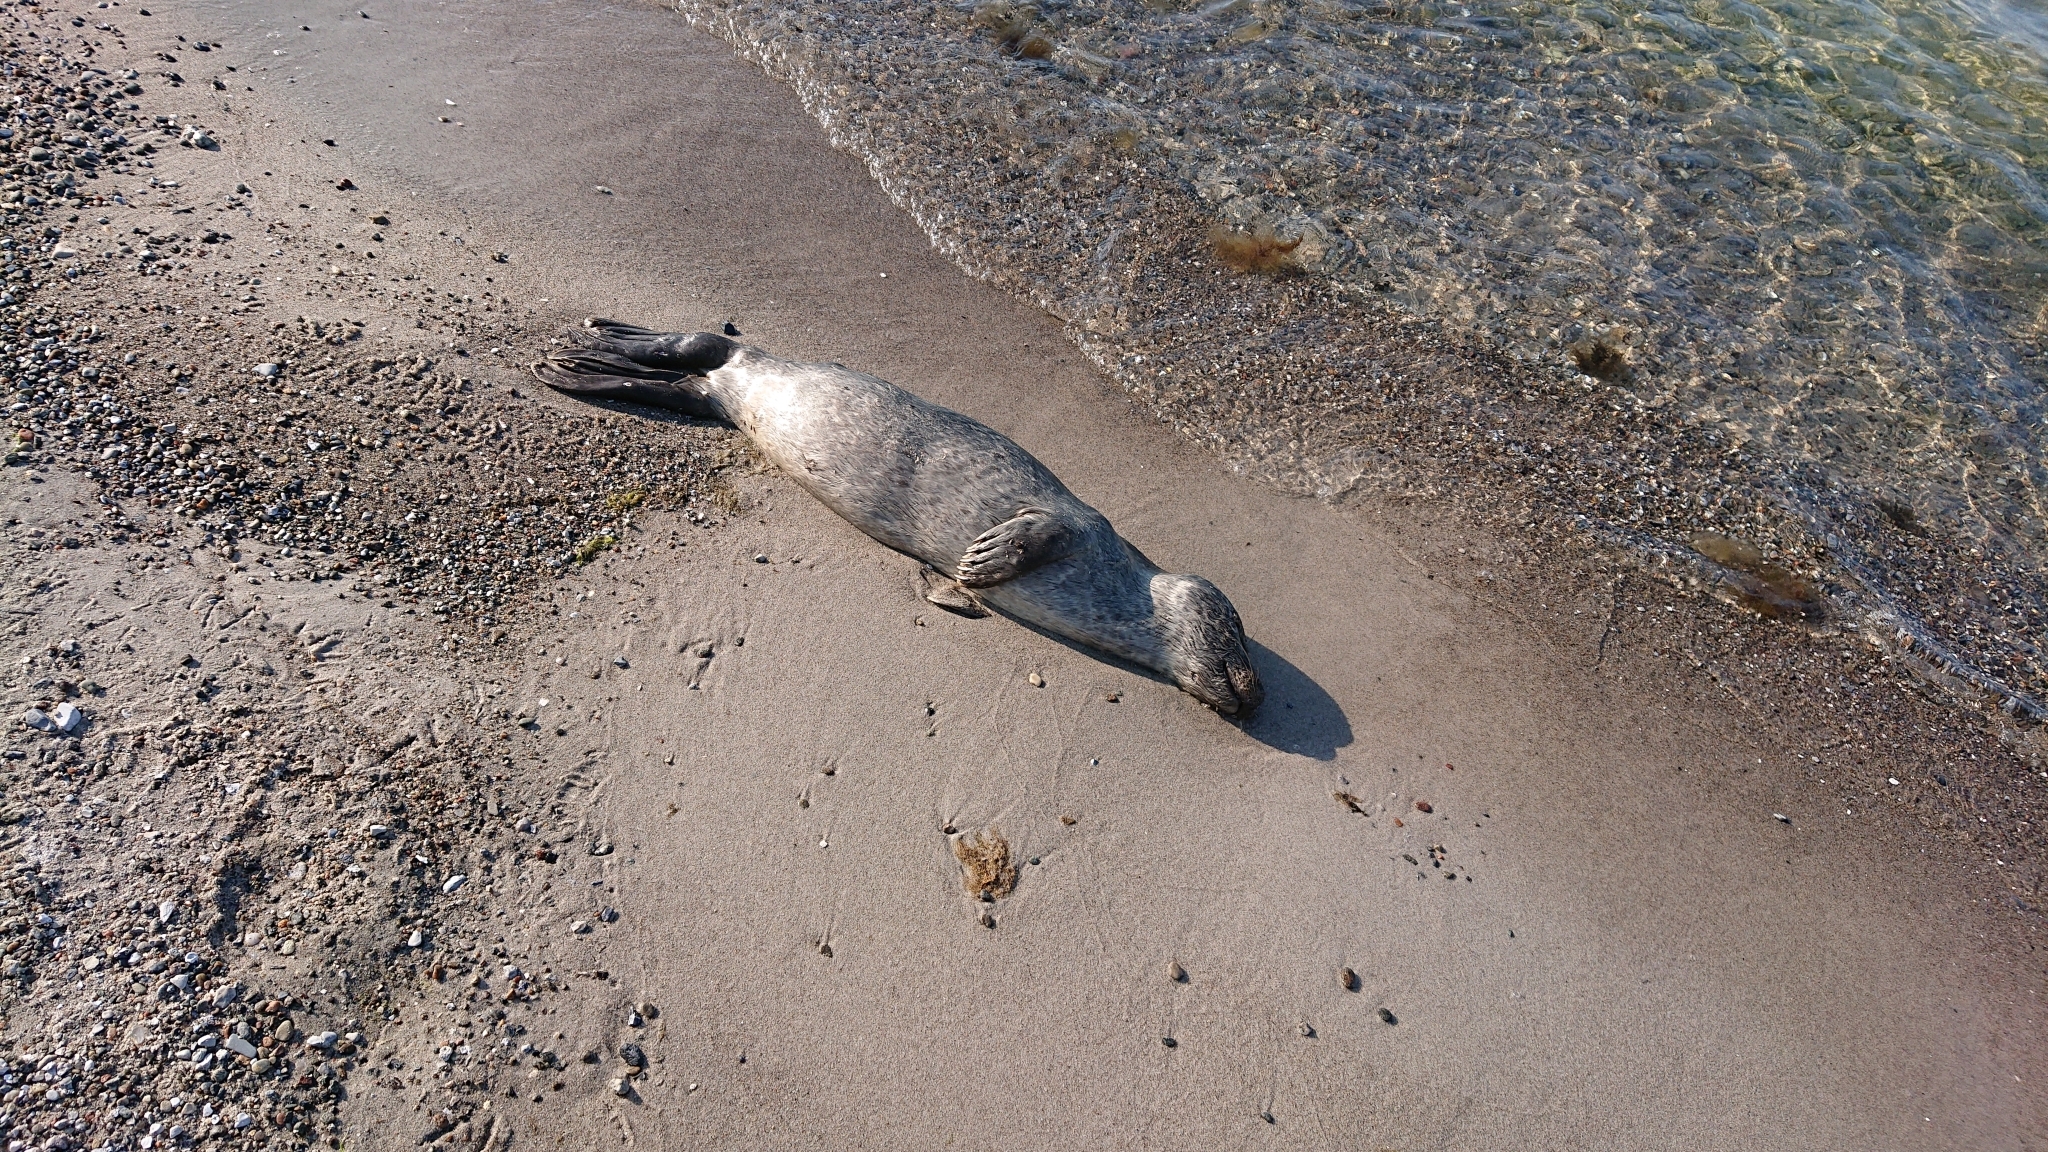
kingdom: Animalia
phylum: Chordata
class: Mammalia
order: Carnivora
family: Phocidae
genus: Phoca
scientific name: Phoca vitulina
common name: Harbor seal
